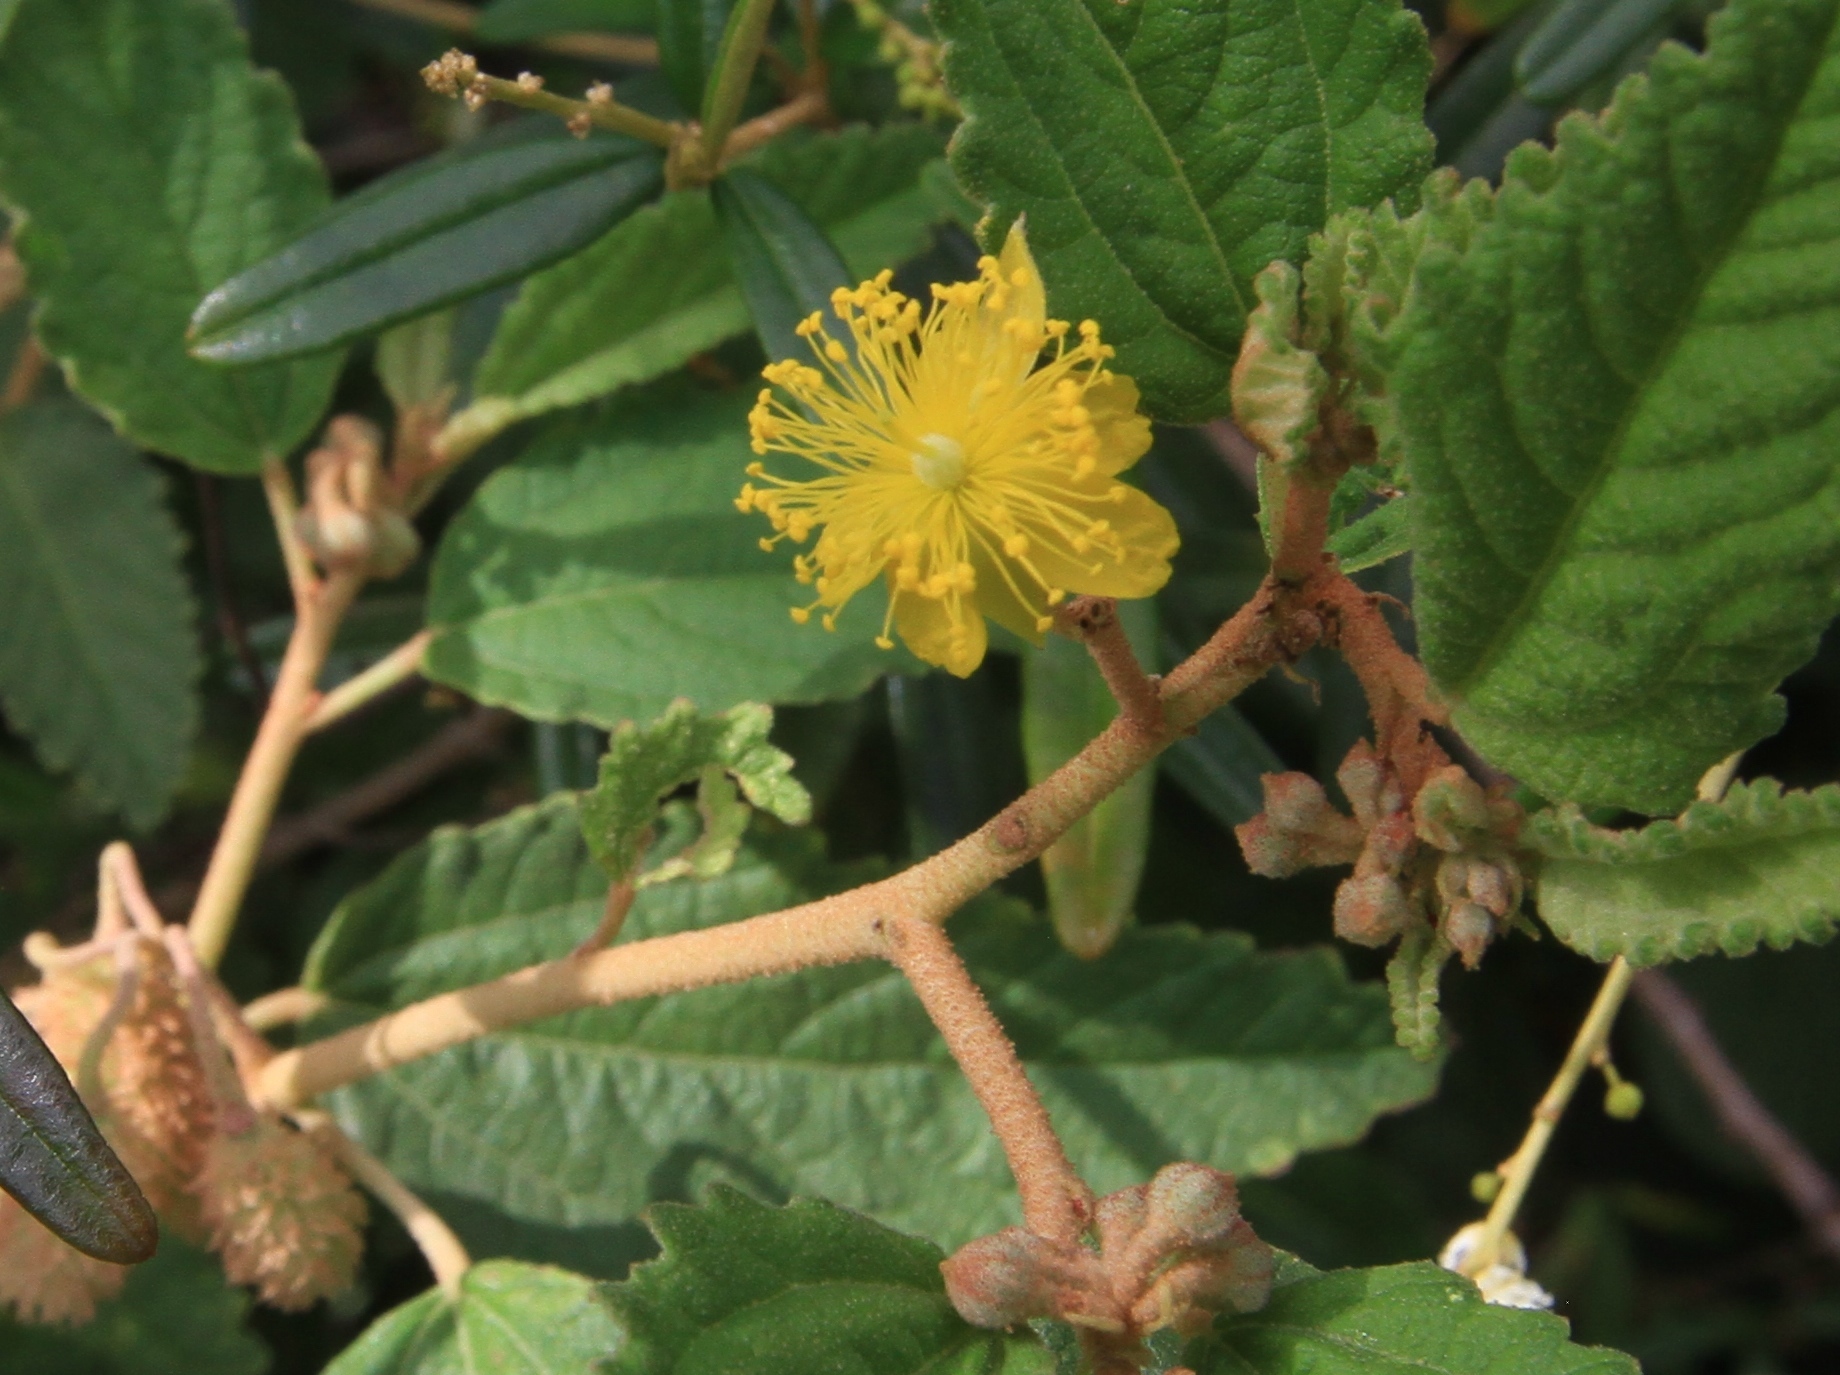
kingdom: Plantae
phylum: Tracheophyta
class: Magnoliopsida
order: Malvales
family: Malvaceae
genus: Corchorus
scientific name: Corchorus hirsutus
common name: Jackswitch
